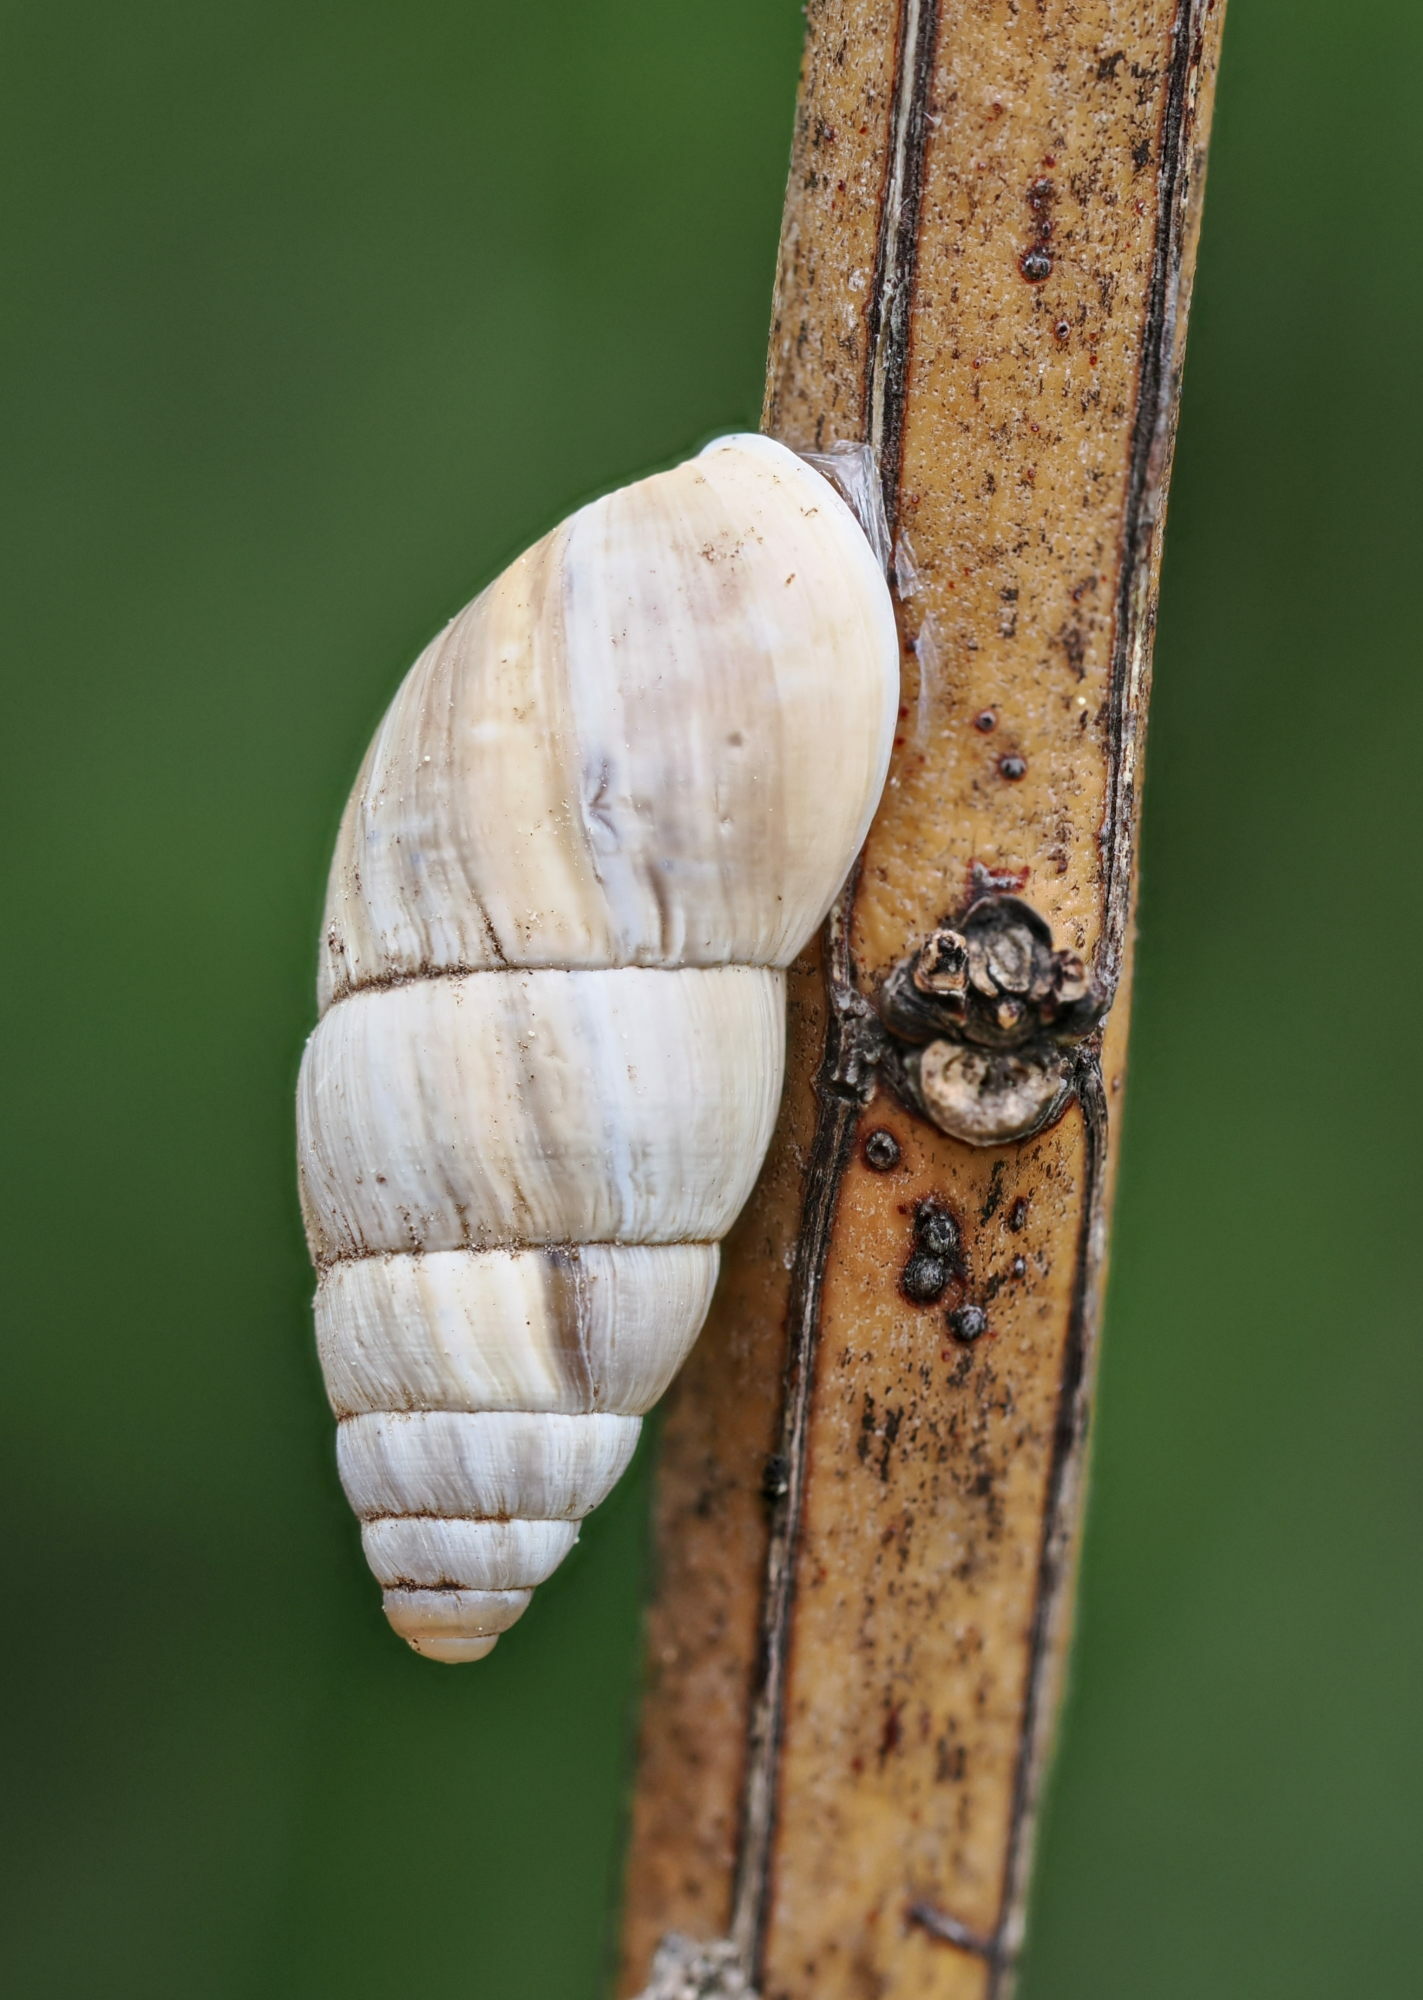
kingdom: Animalia
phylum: Mollusca
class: Gastropoda
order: Stylommatophora
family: Enidae
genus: Zebrina
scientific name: Zebrina detrita
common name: Large bulin
